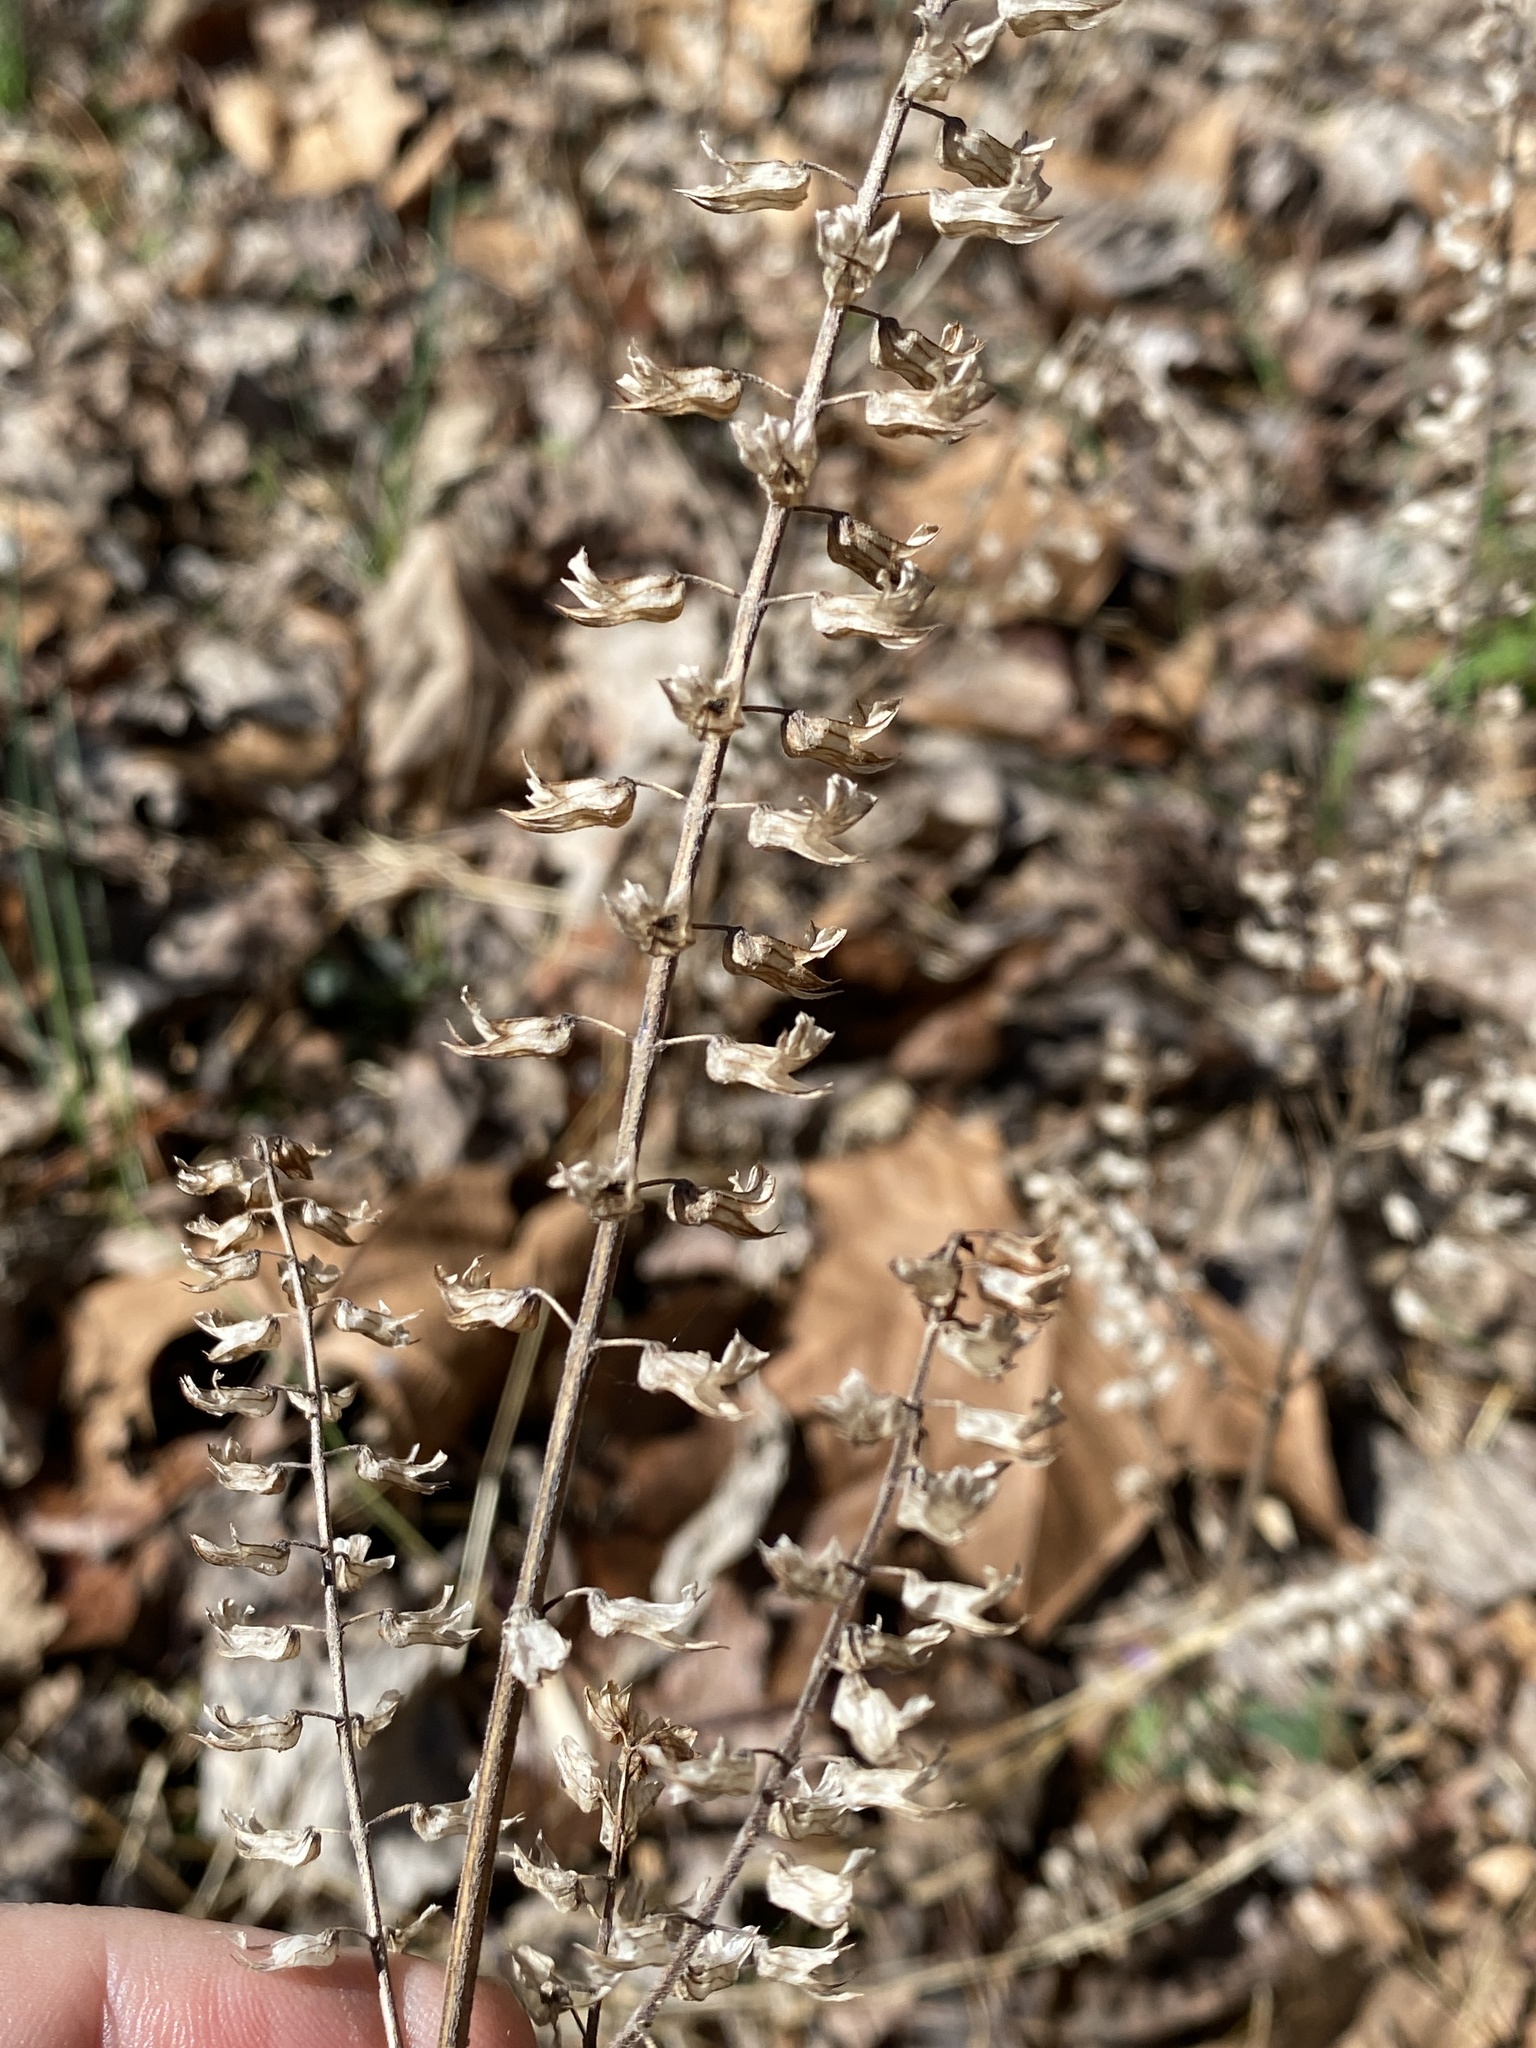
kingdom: Plantae
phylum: Tracheophyta
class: Magnoliopsida
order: Lamiales
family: Lamiaceae
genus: Perilla
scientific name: Perilla frutescens
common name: Perilla
